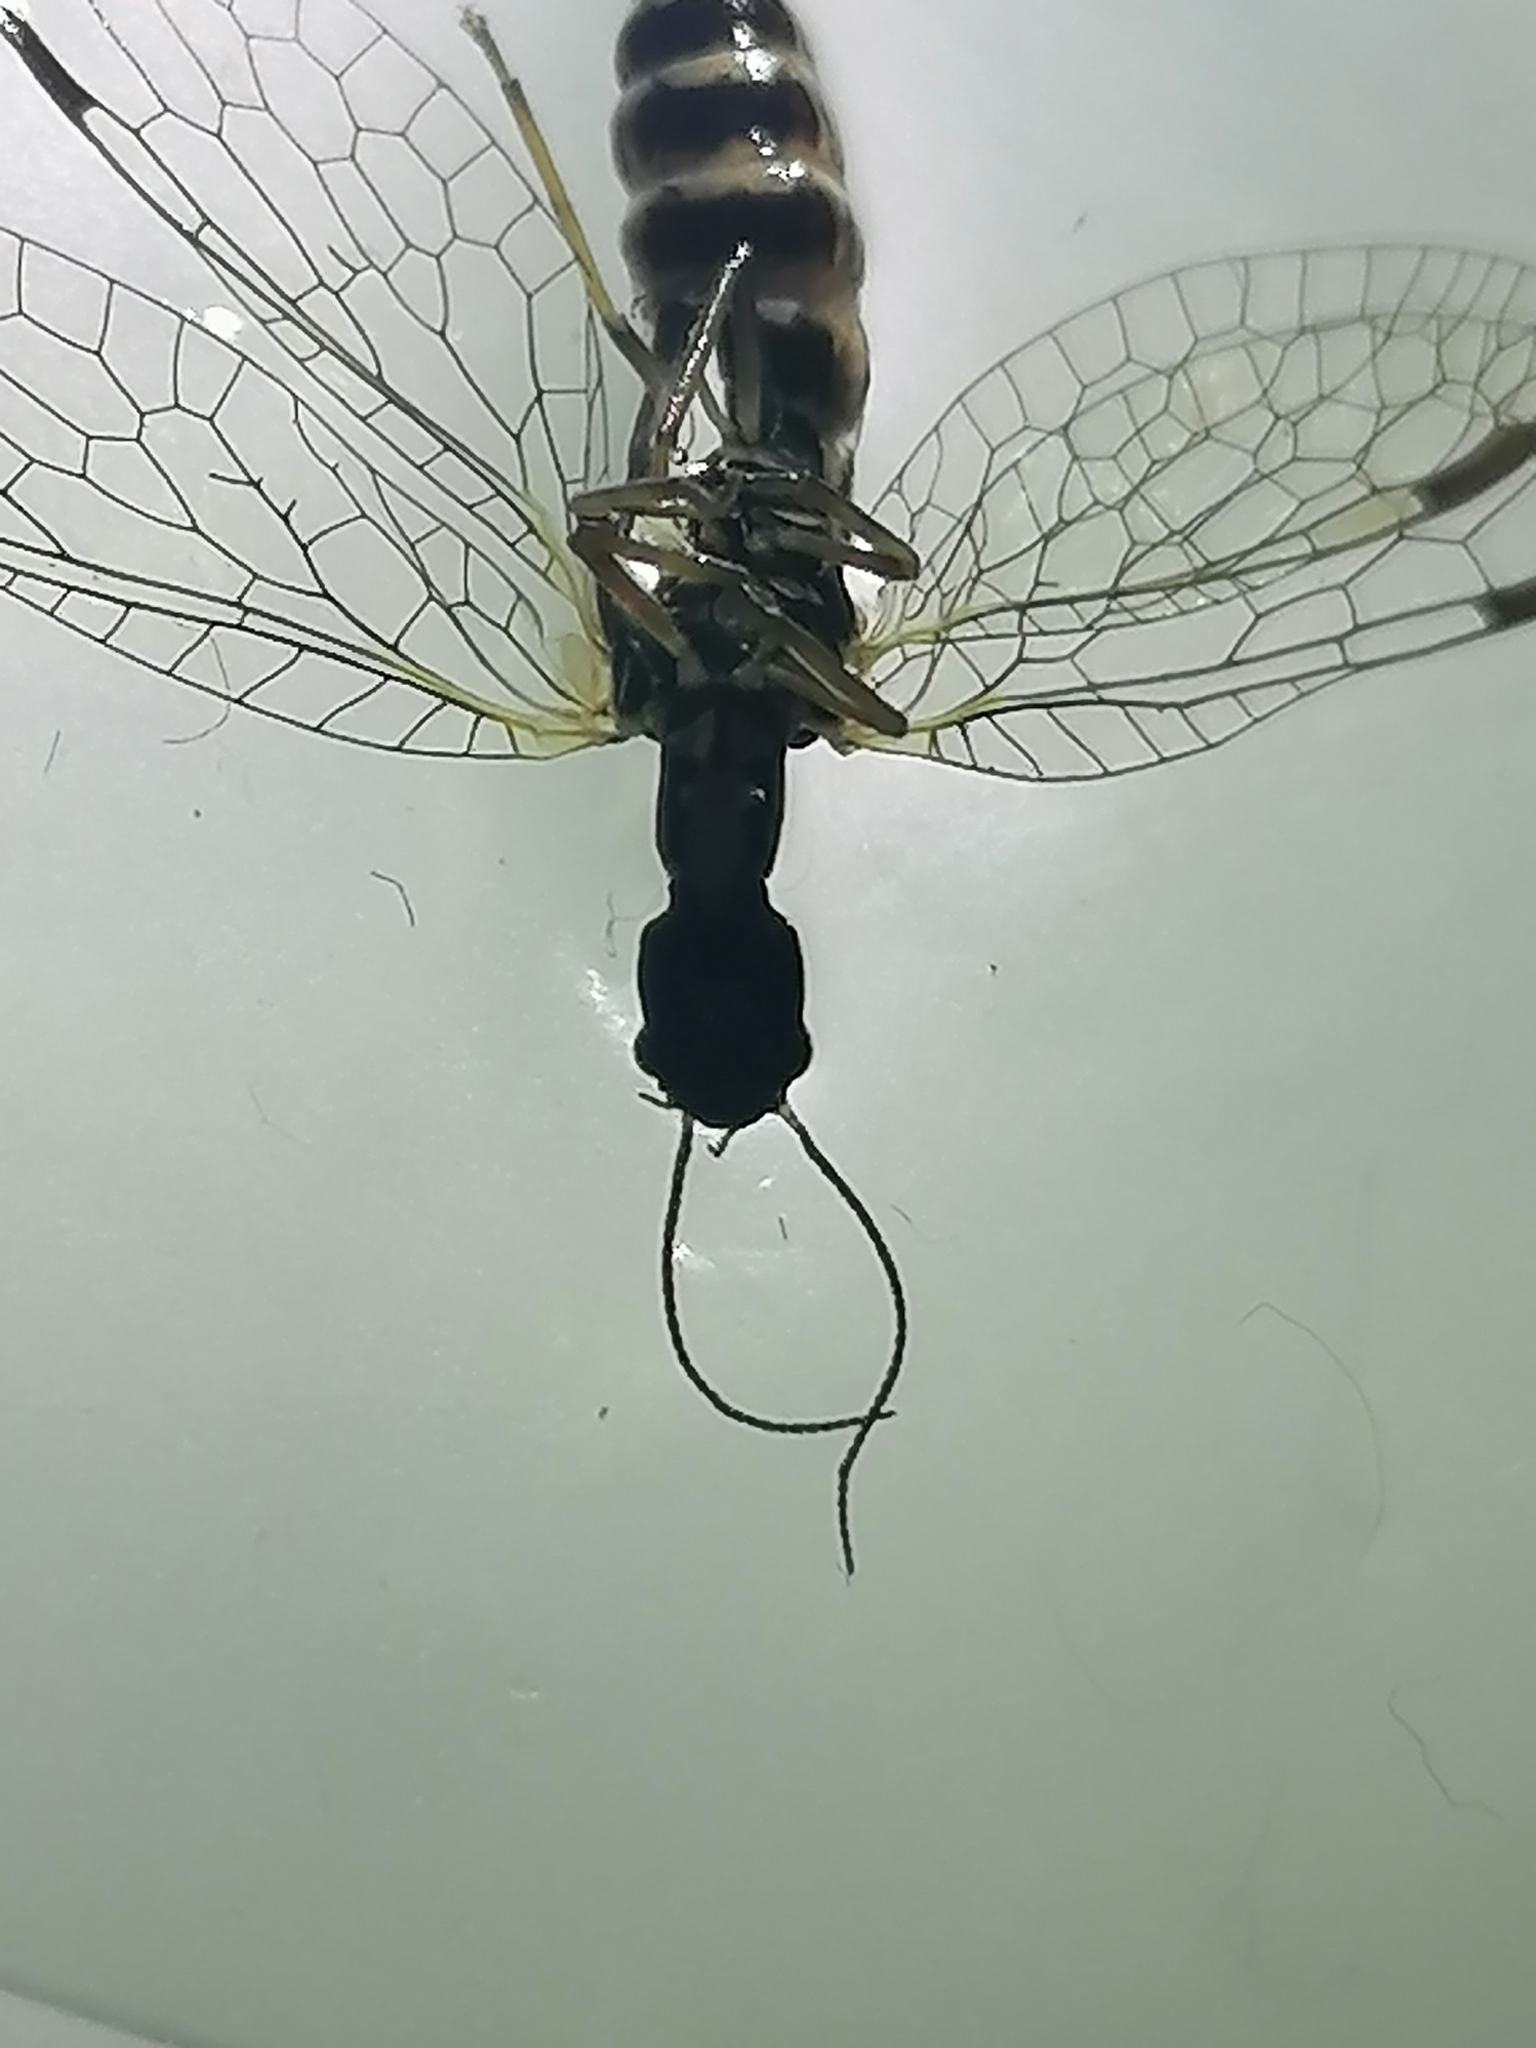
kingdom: Animalia
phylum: Arthropoda
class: Insecta
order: Raphidioptera
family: Inocelliidae
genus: Inocellia
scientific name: Inocellia crassicornis
